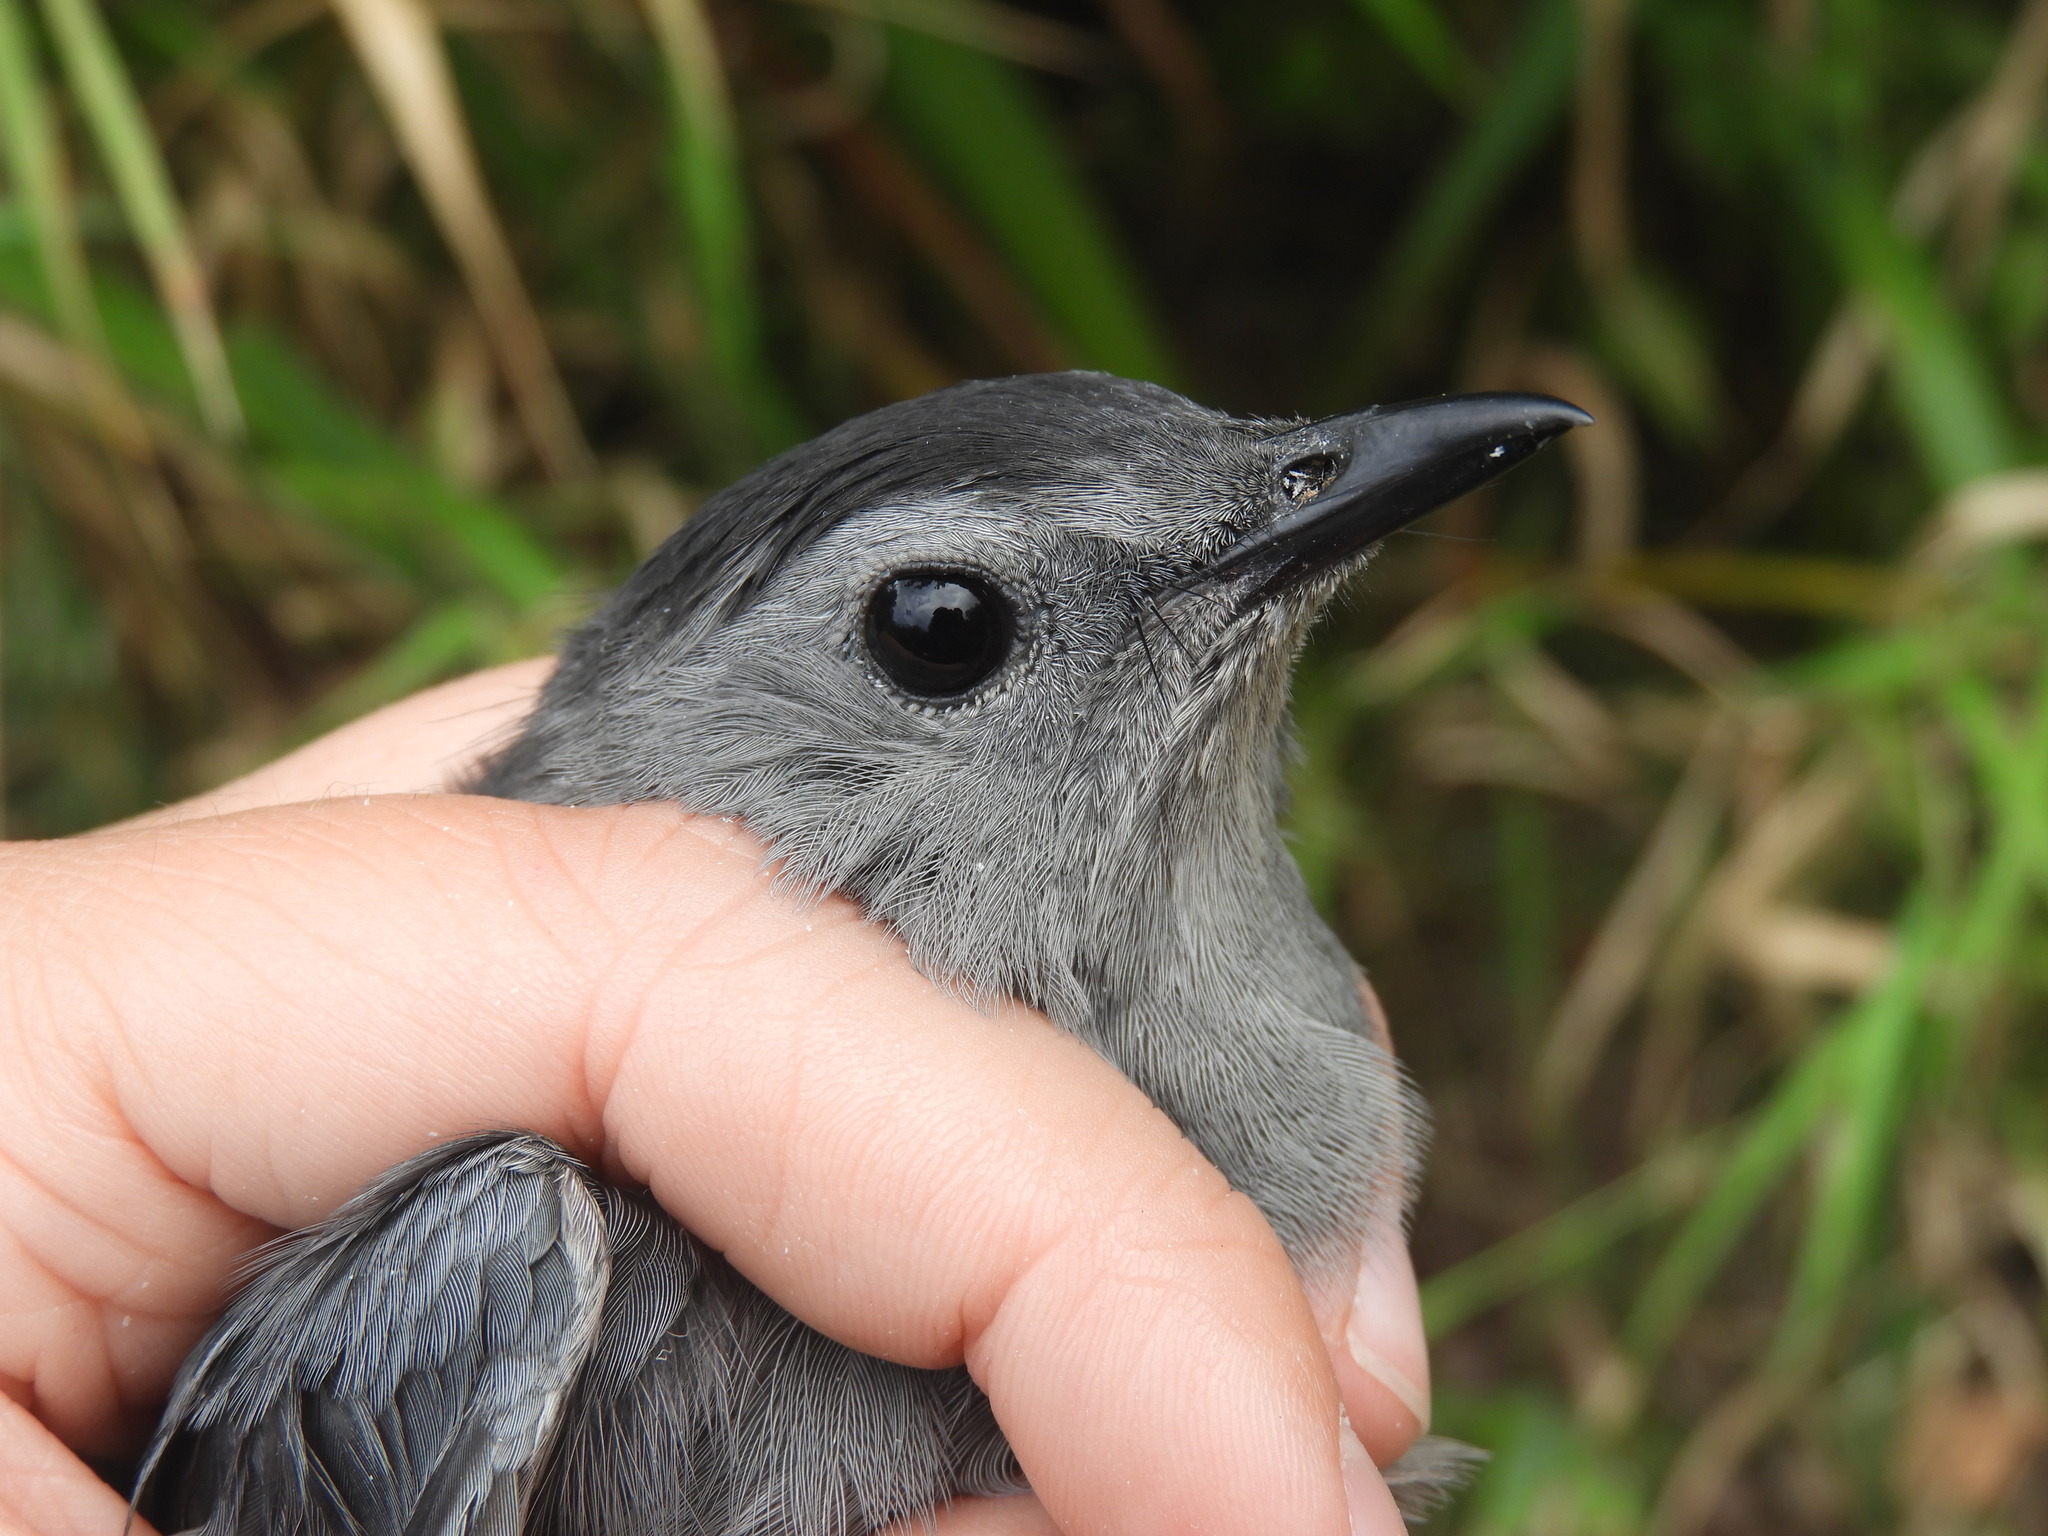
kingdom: Animalia
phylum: Chordata
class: Aves
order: Passeriformes
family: Mimidae
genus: Dumetella
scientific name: Dumetella carolinensis
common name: Gray catbird
